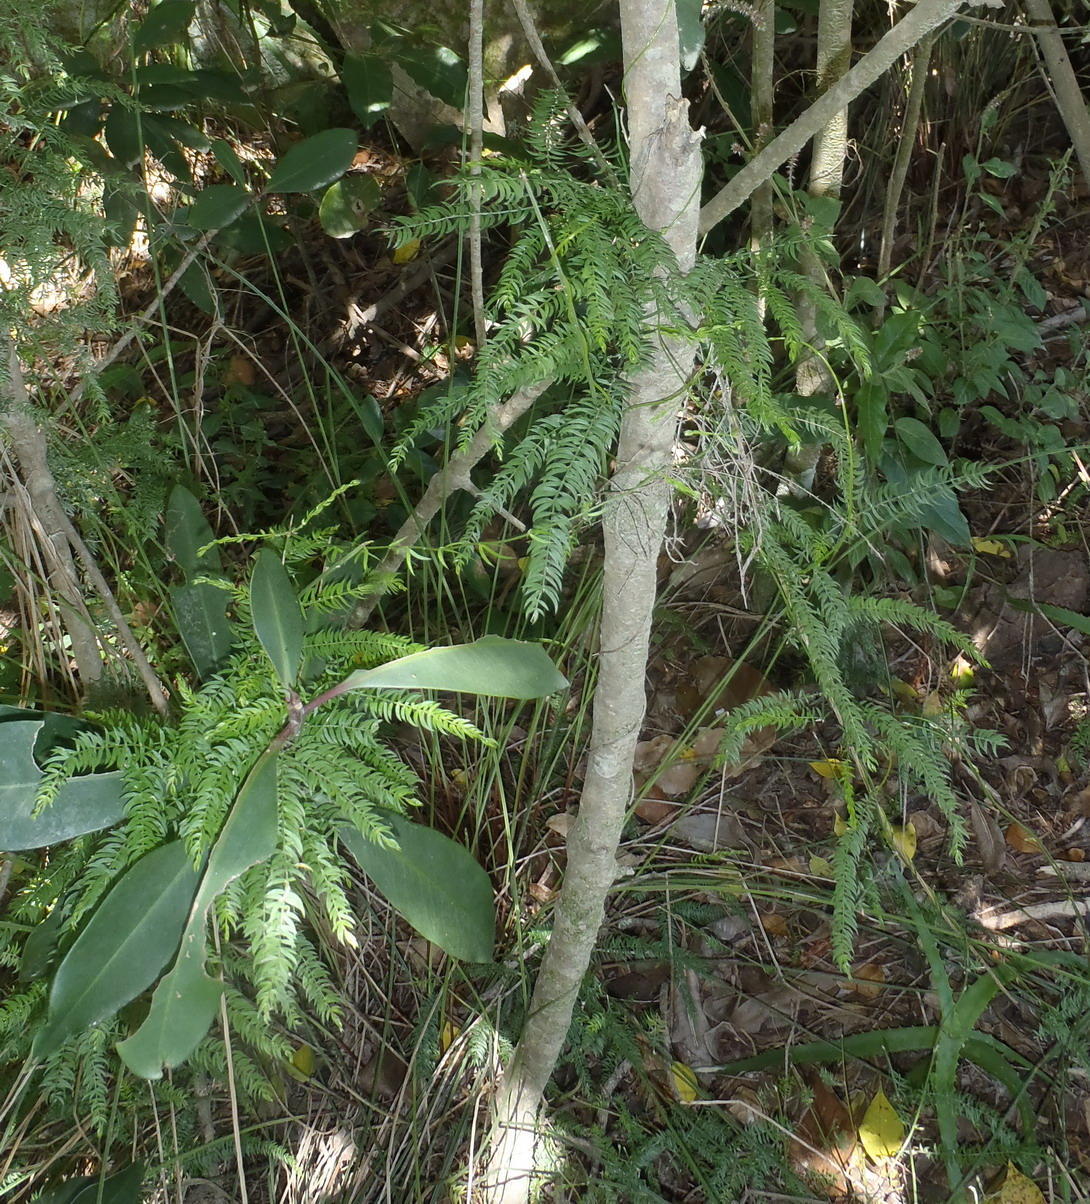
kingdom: Plantae
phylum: Tracheophyta
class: Liliopsida
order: Asparagales
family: Asparagaceae
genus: Asparagus
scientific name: Asparagus scandens
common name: Asparagus-fern
